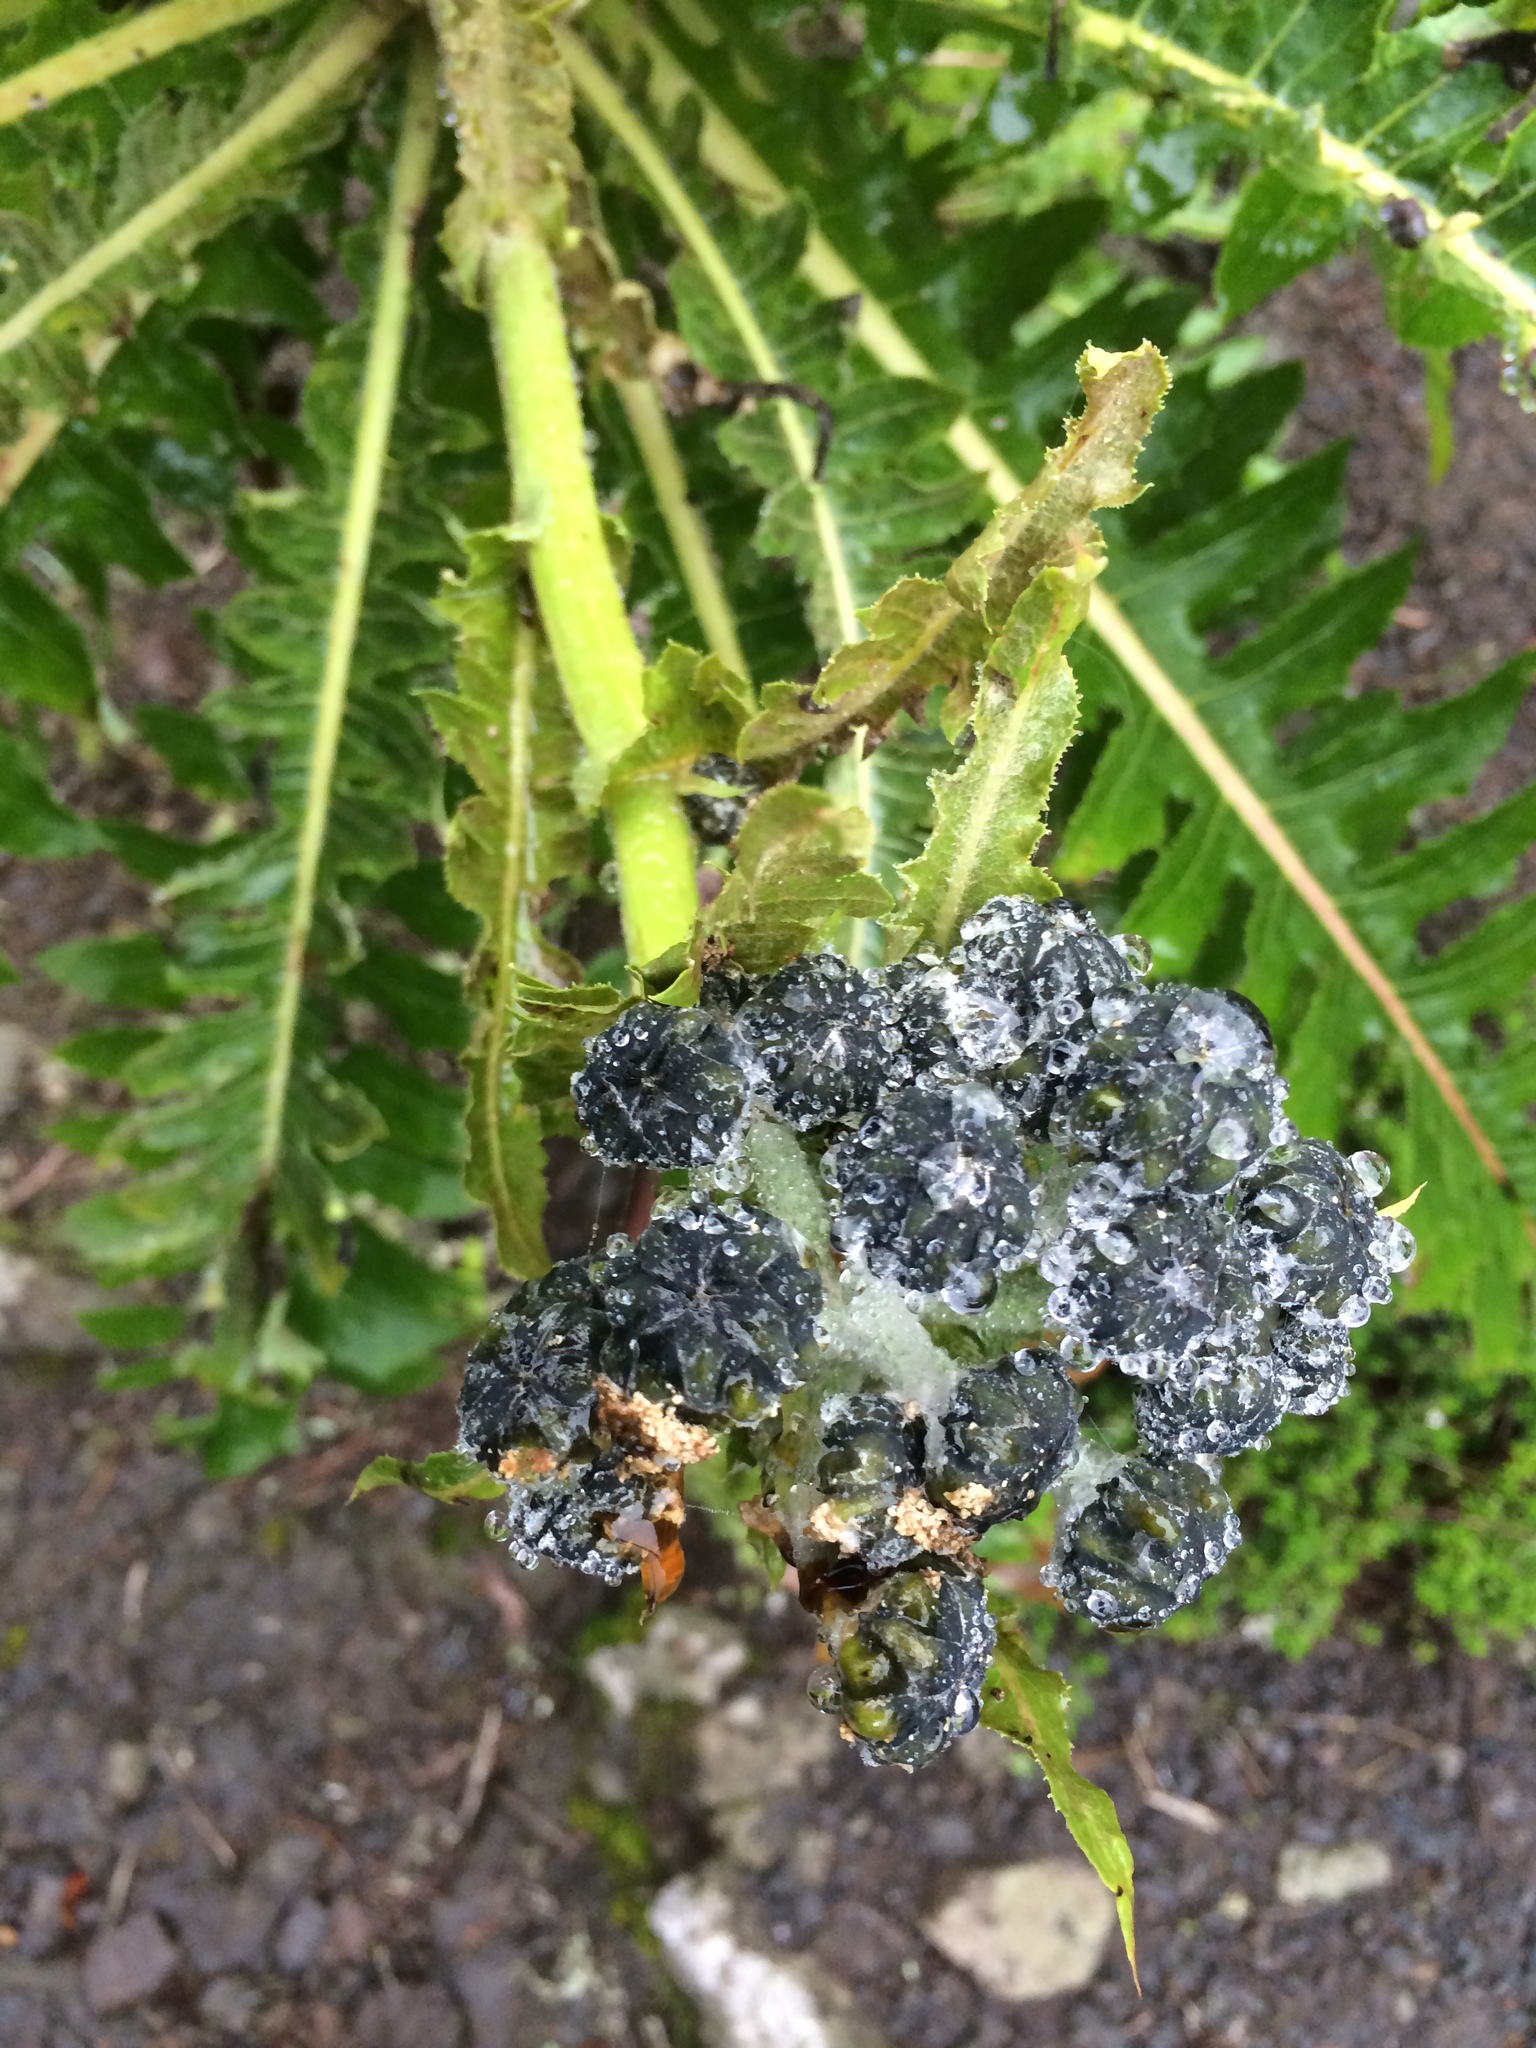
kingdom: Plantae
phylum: Tracheophyta
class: Magnoliopsida
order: Asterales
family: Asteraceae
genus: Sonchus
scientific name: Sonchus hierrensis
